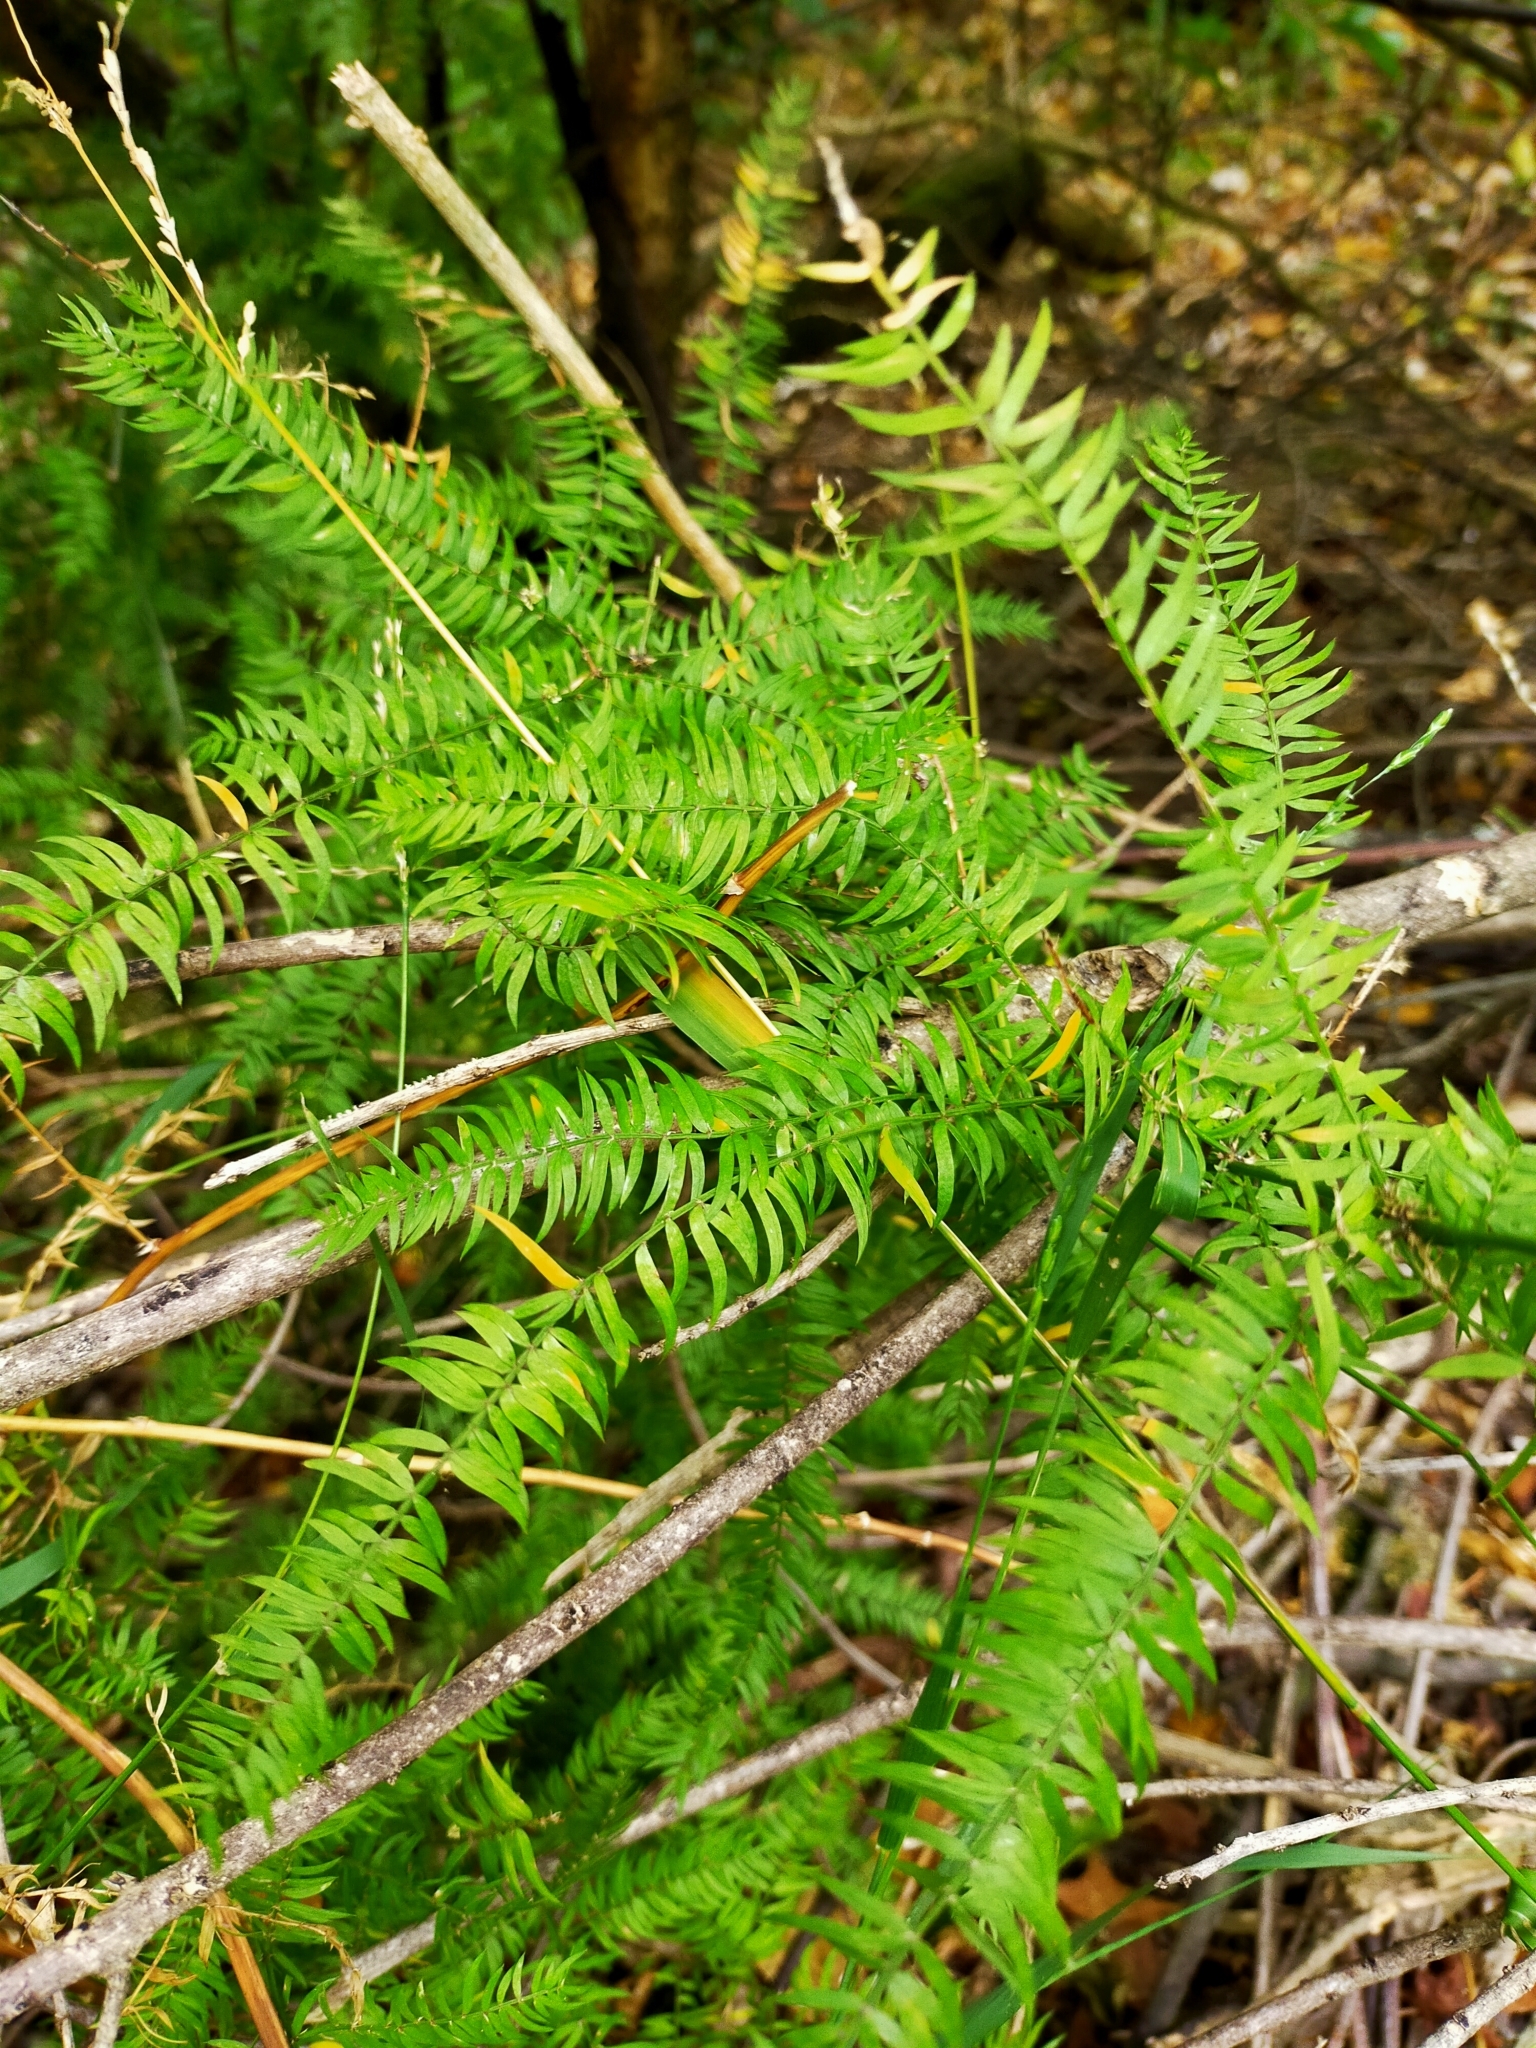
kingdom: Plantae
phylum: Tracheophyta
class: Liliopsida
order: Asparagales
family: Asparagaceae
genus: Asparagus
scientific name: Asparagus scandens
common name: Asparagus-fern
